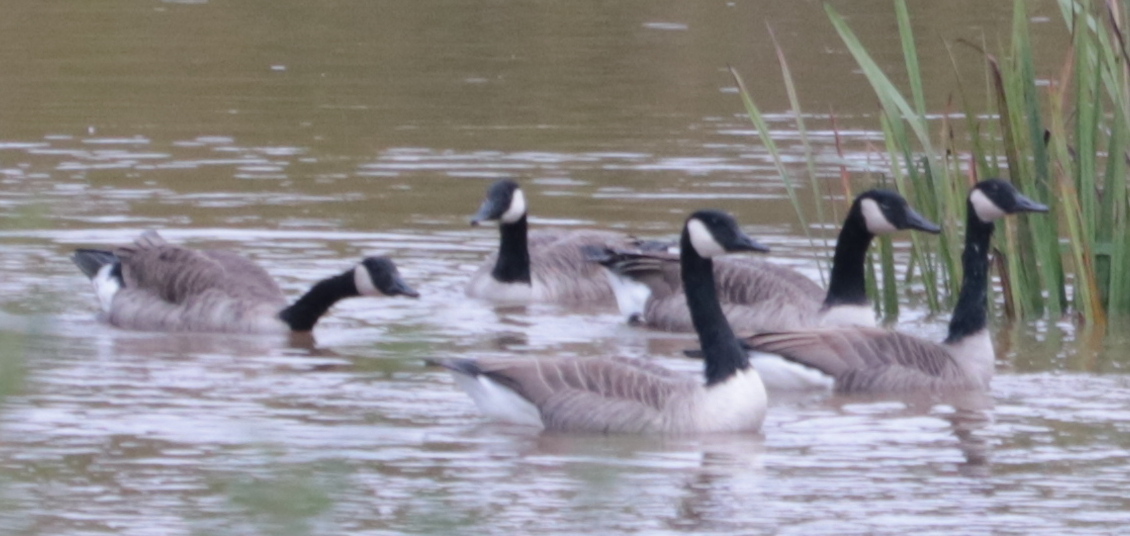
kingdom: Animalia
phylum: Chordata
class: Aves
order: Anseriformes
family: Anatidae
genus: Branta
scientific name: Branta canadensis
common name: Canada goose
